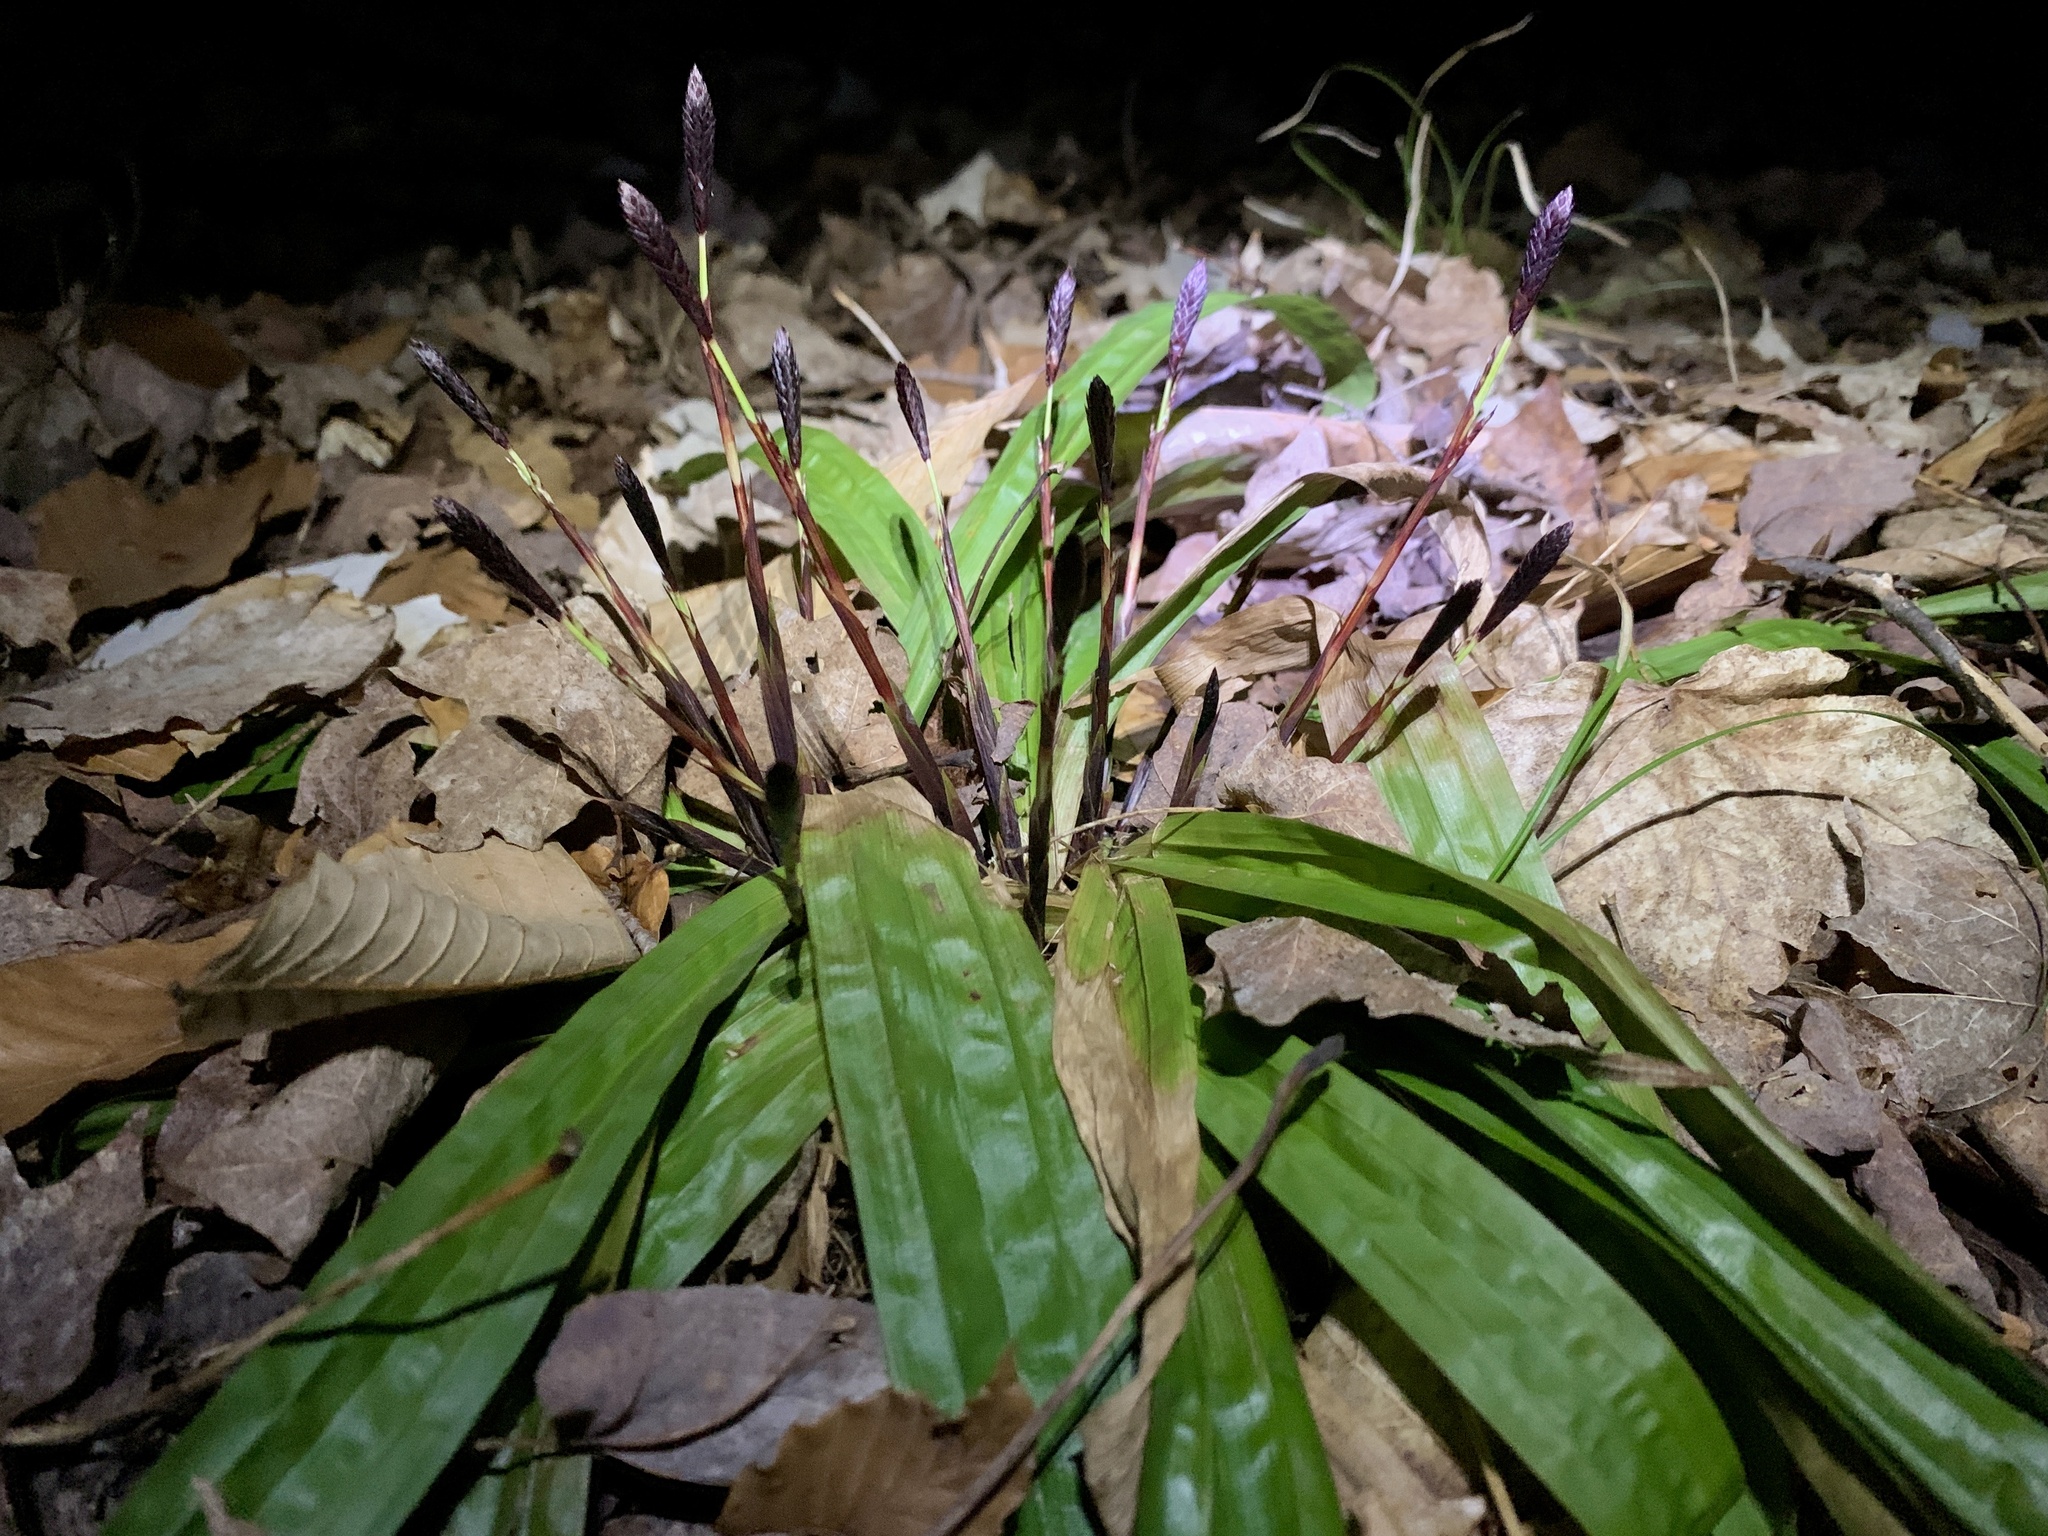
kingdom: Plantae
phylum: Tracheophyta
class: Liliopsida
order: Poales
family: Cyperaceae
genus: Carex
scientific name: Carex plantaginea
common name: Plantain-leaved sedge
